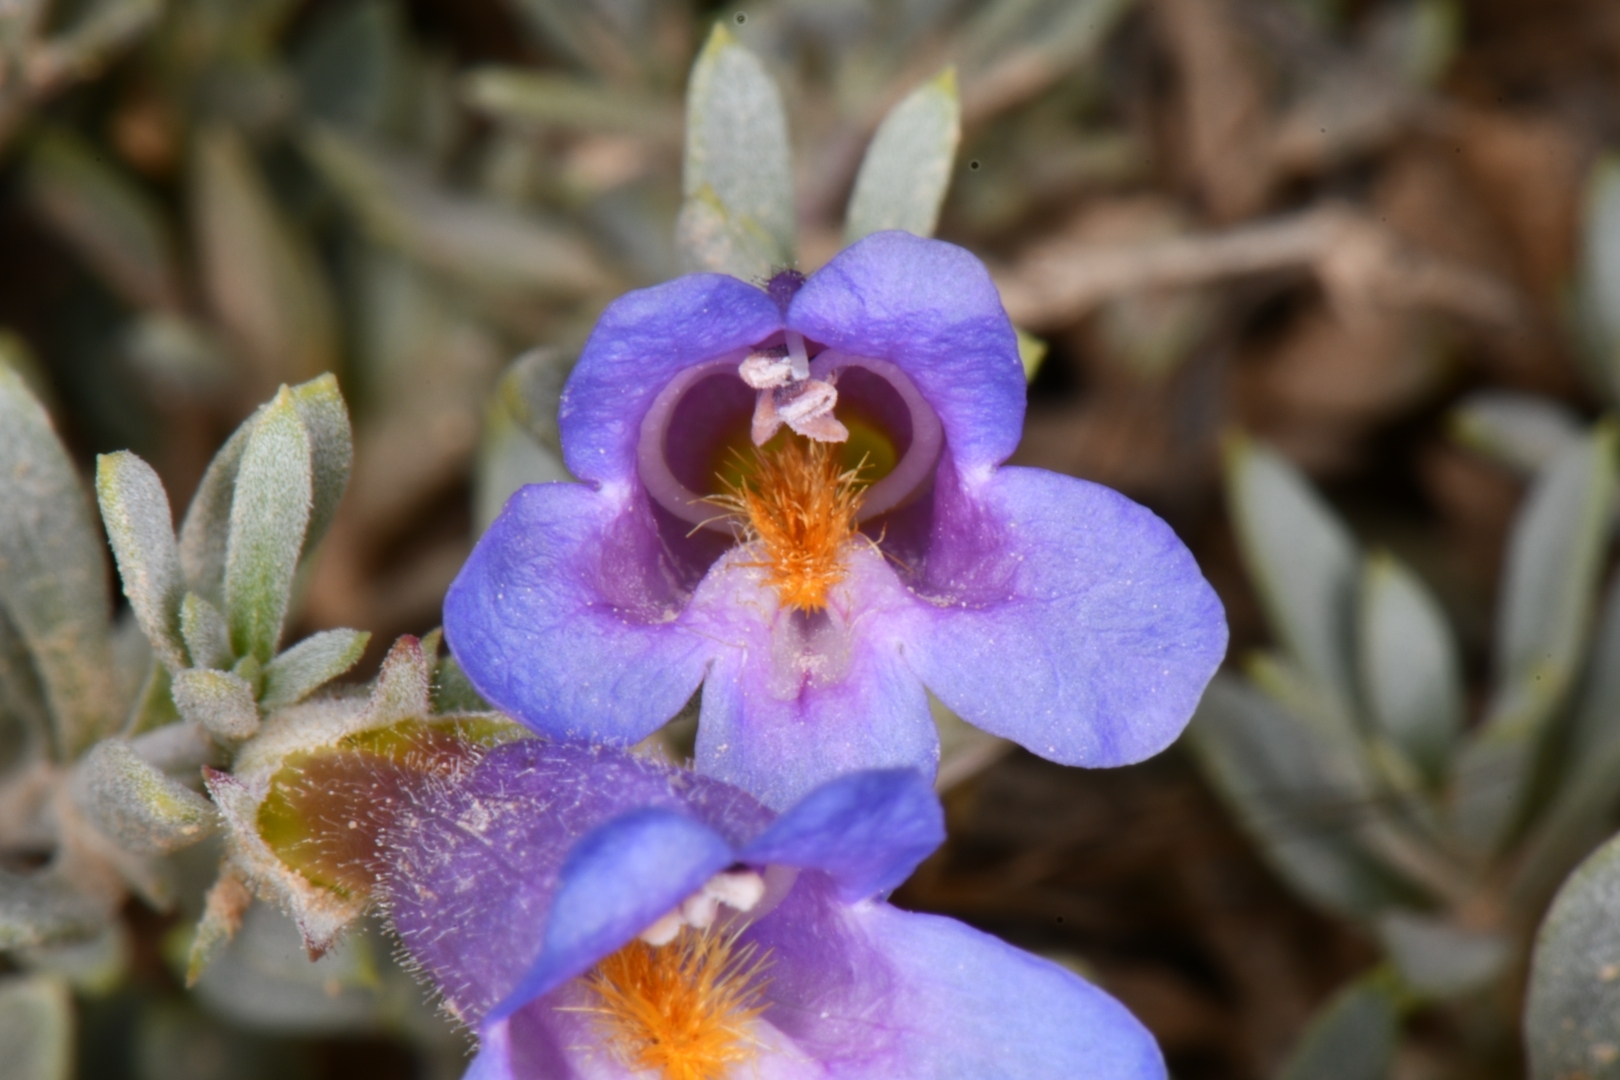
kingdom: Plantae
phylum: Tracheophyta
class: Magnoliopsida
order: Lamiales
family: Plantaginaceae
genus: Penstemon
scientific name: Penstemon thompsoniae
